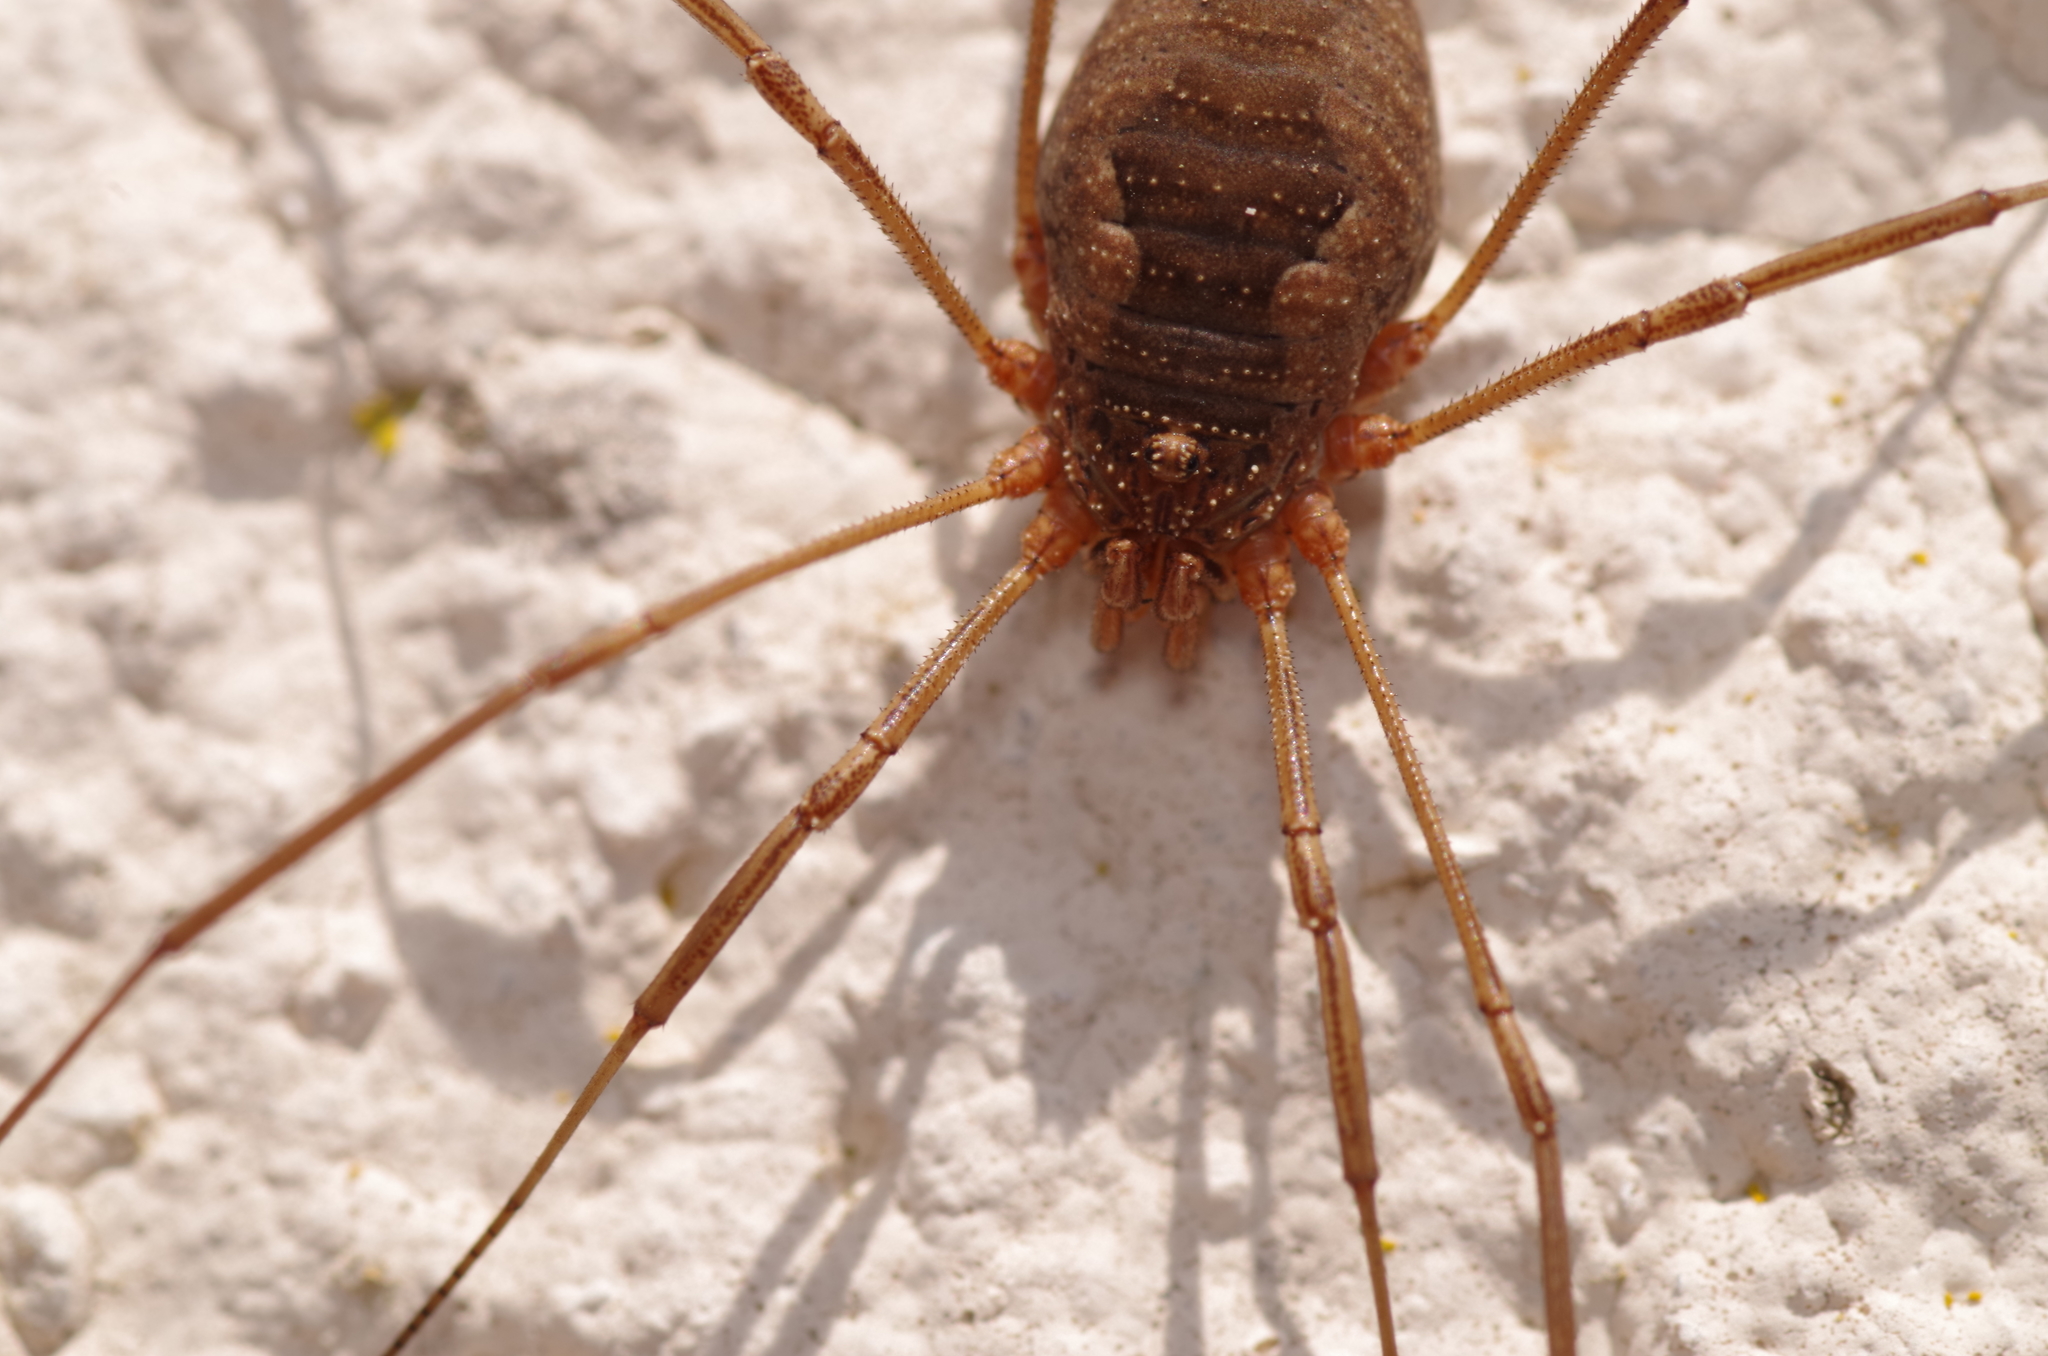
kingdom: Animalia
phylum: Arthropoda
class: Arachnida
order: Opiliones
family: Phalangiidae
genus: Phalangium
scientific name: Phalangium opilio
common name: Daddy longleg
